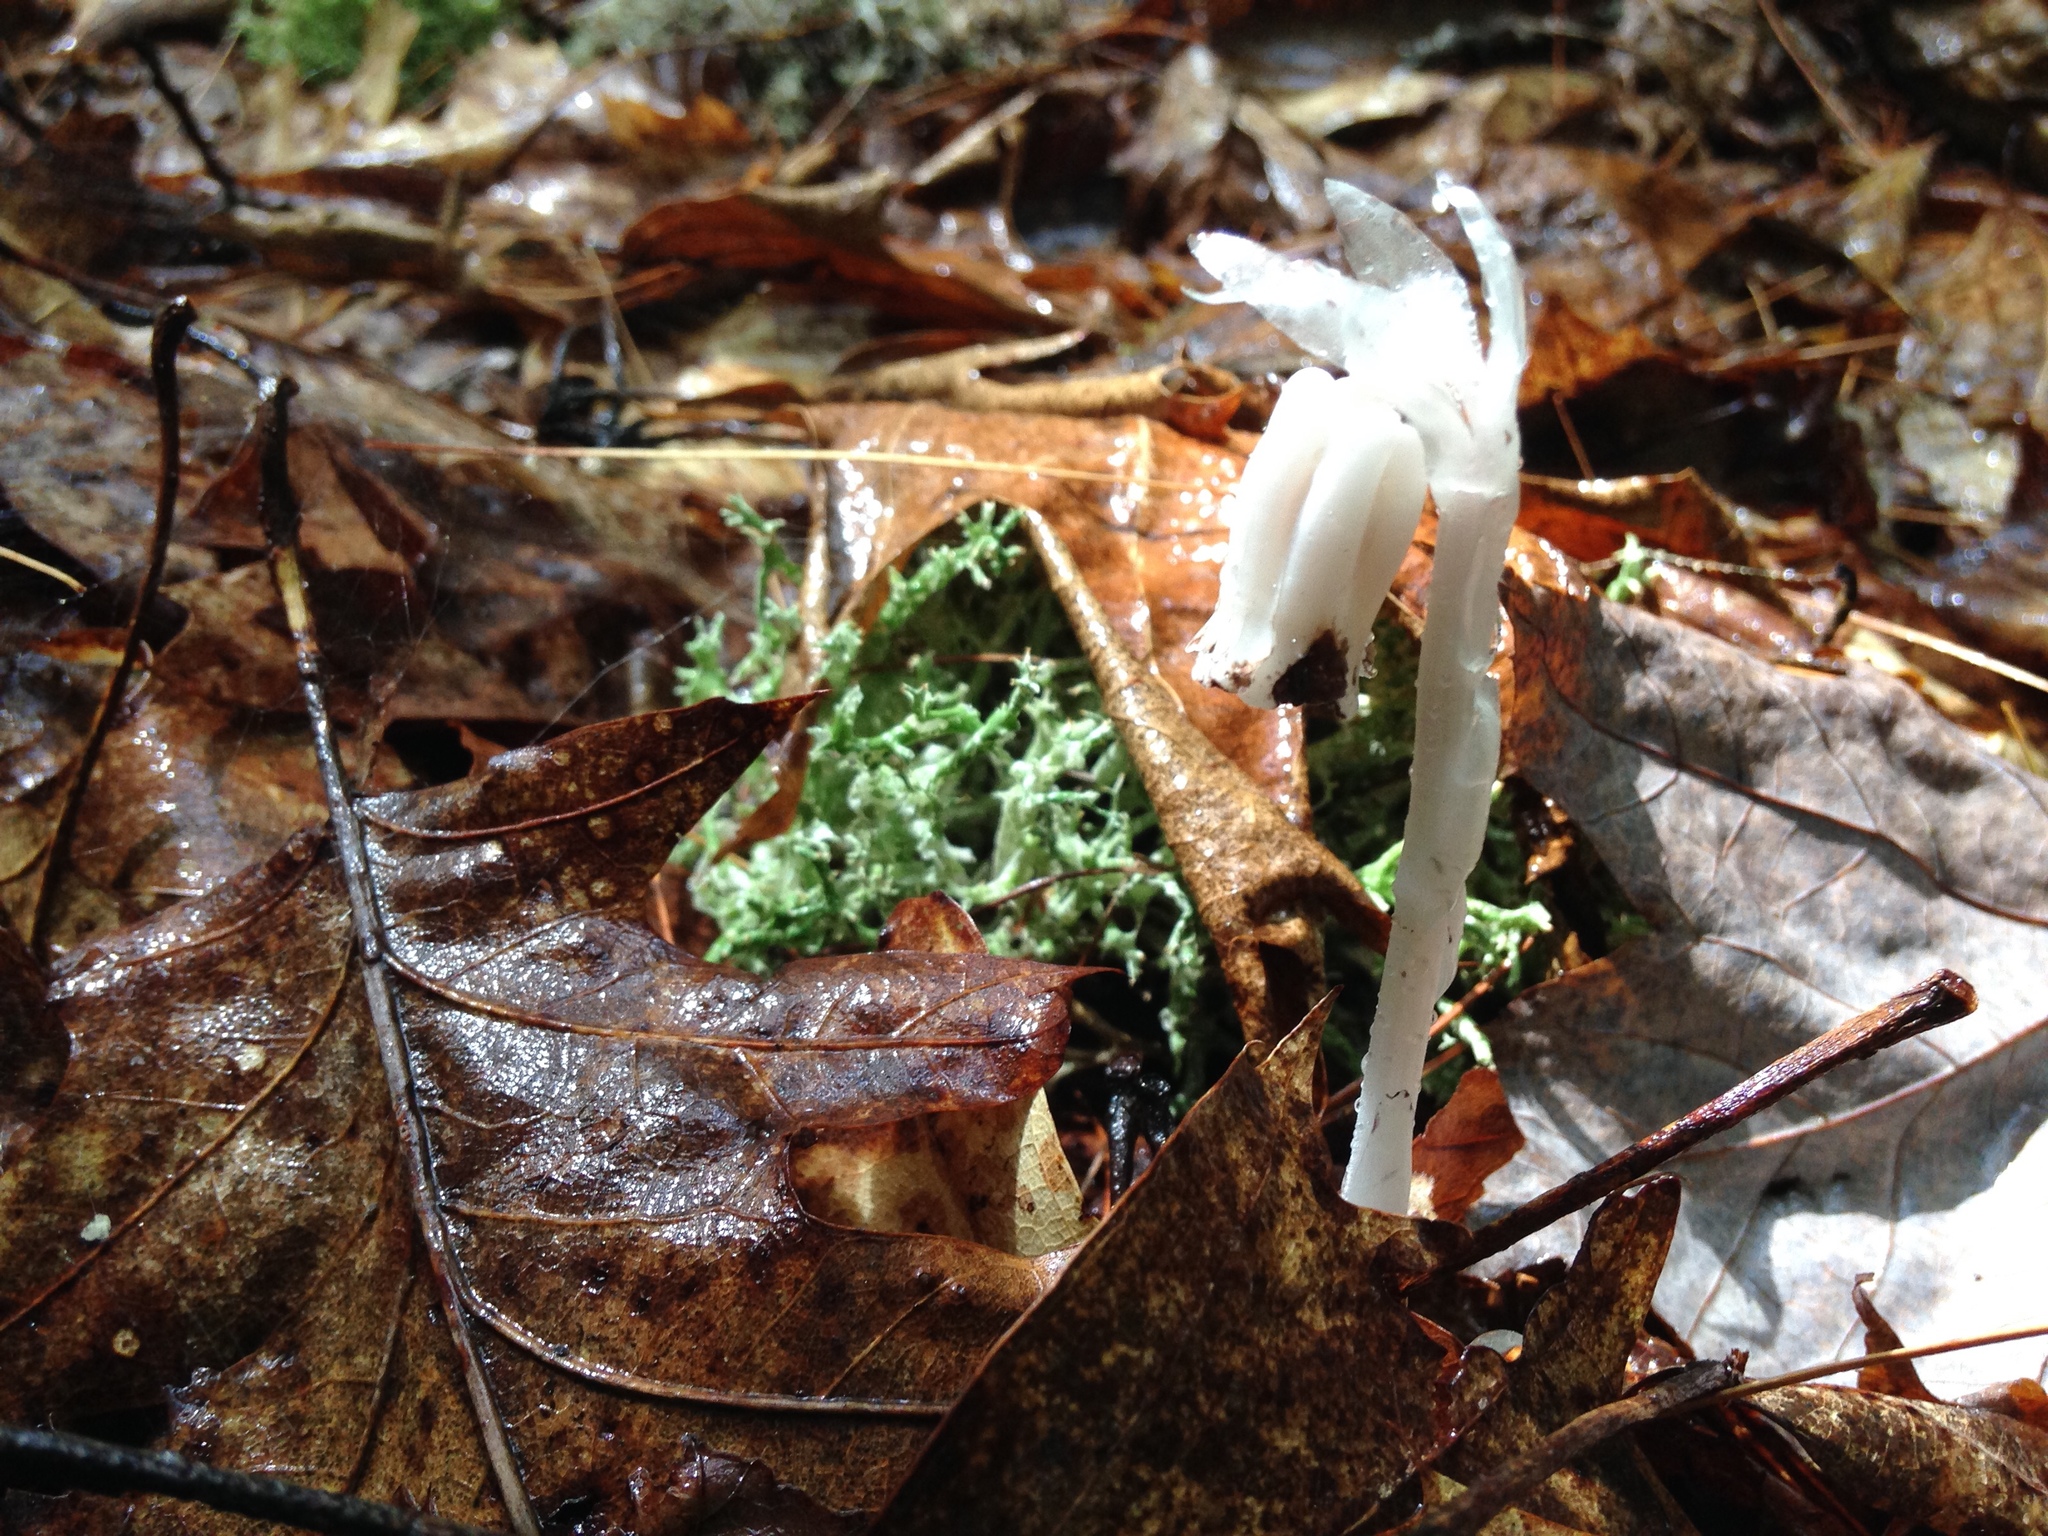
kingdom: Plantae
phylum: Tracheophyta
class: Magnoliopsida
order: Ericales
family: Ericaceae
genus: Monotropa
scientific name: Monotropa uniflora
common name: Convulsion root
